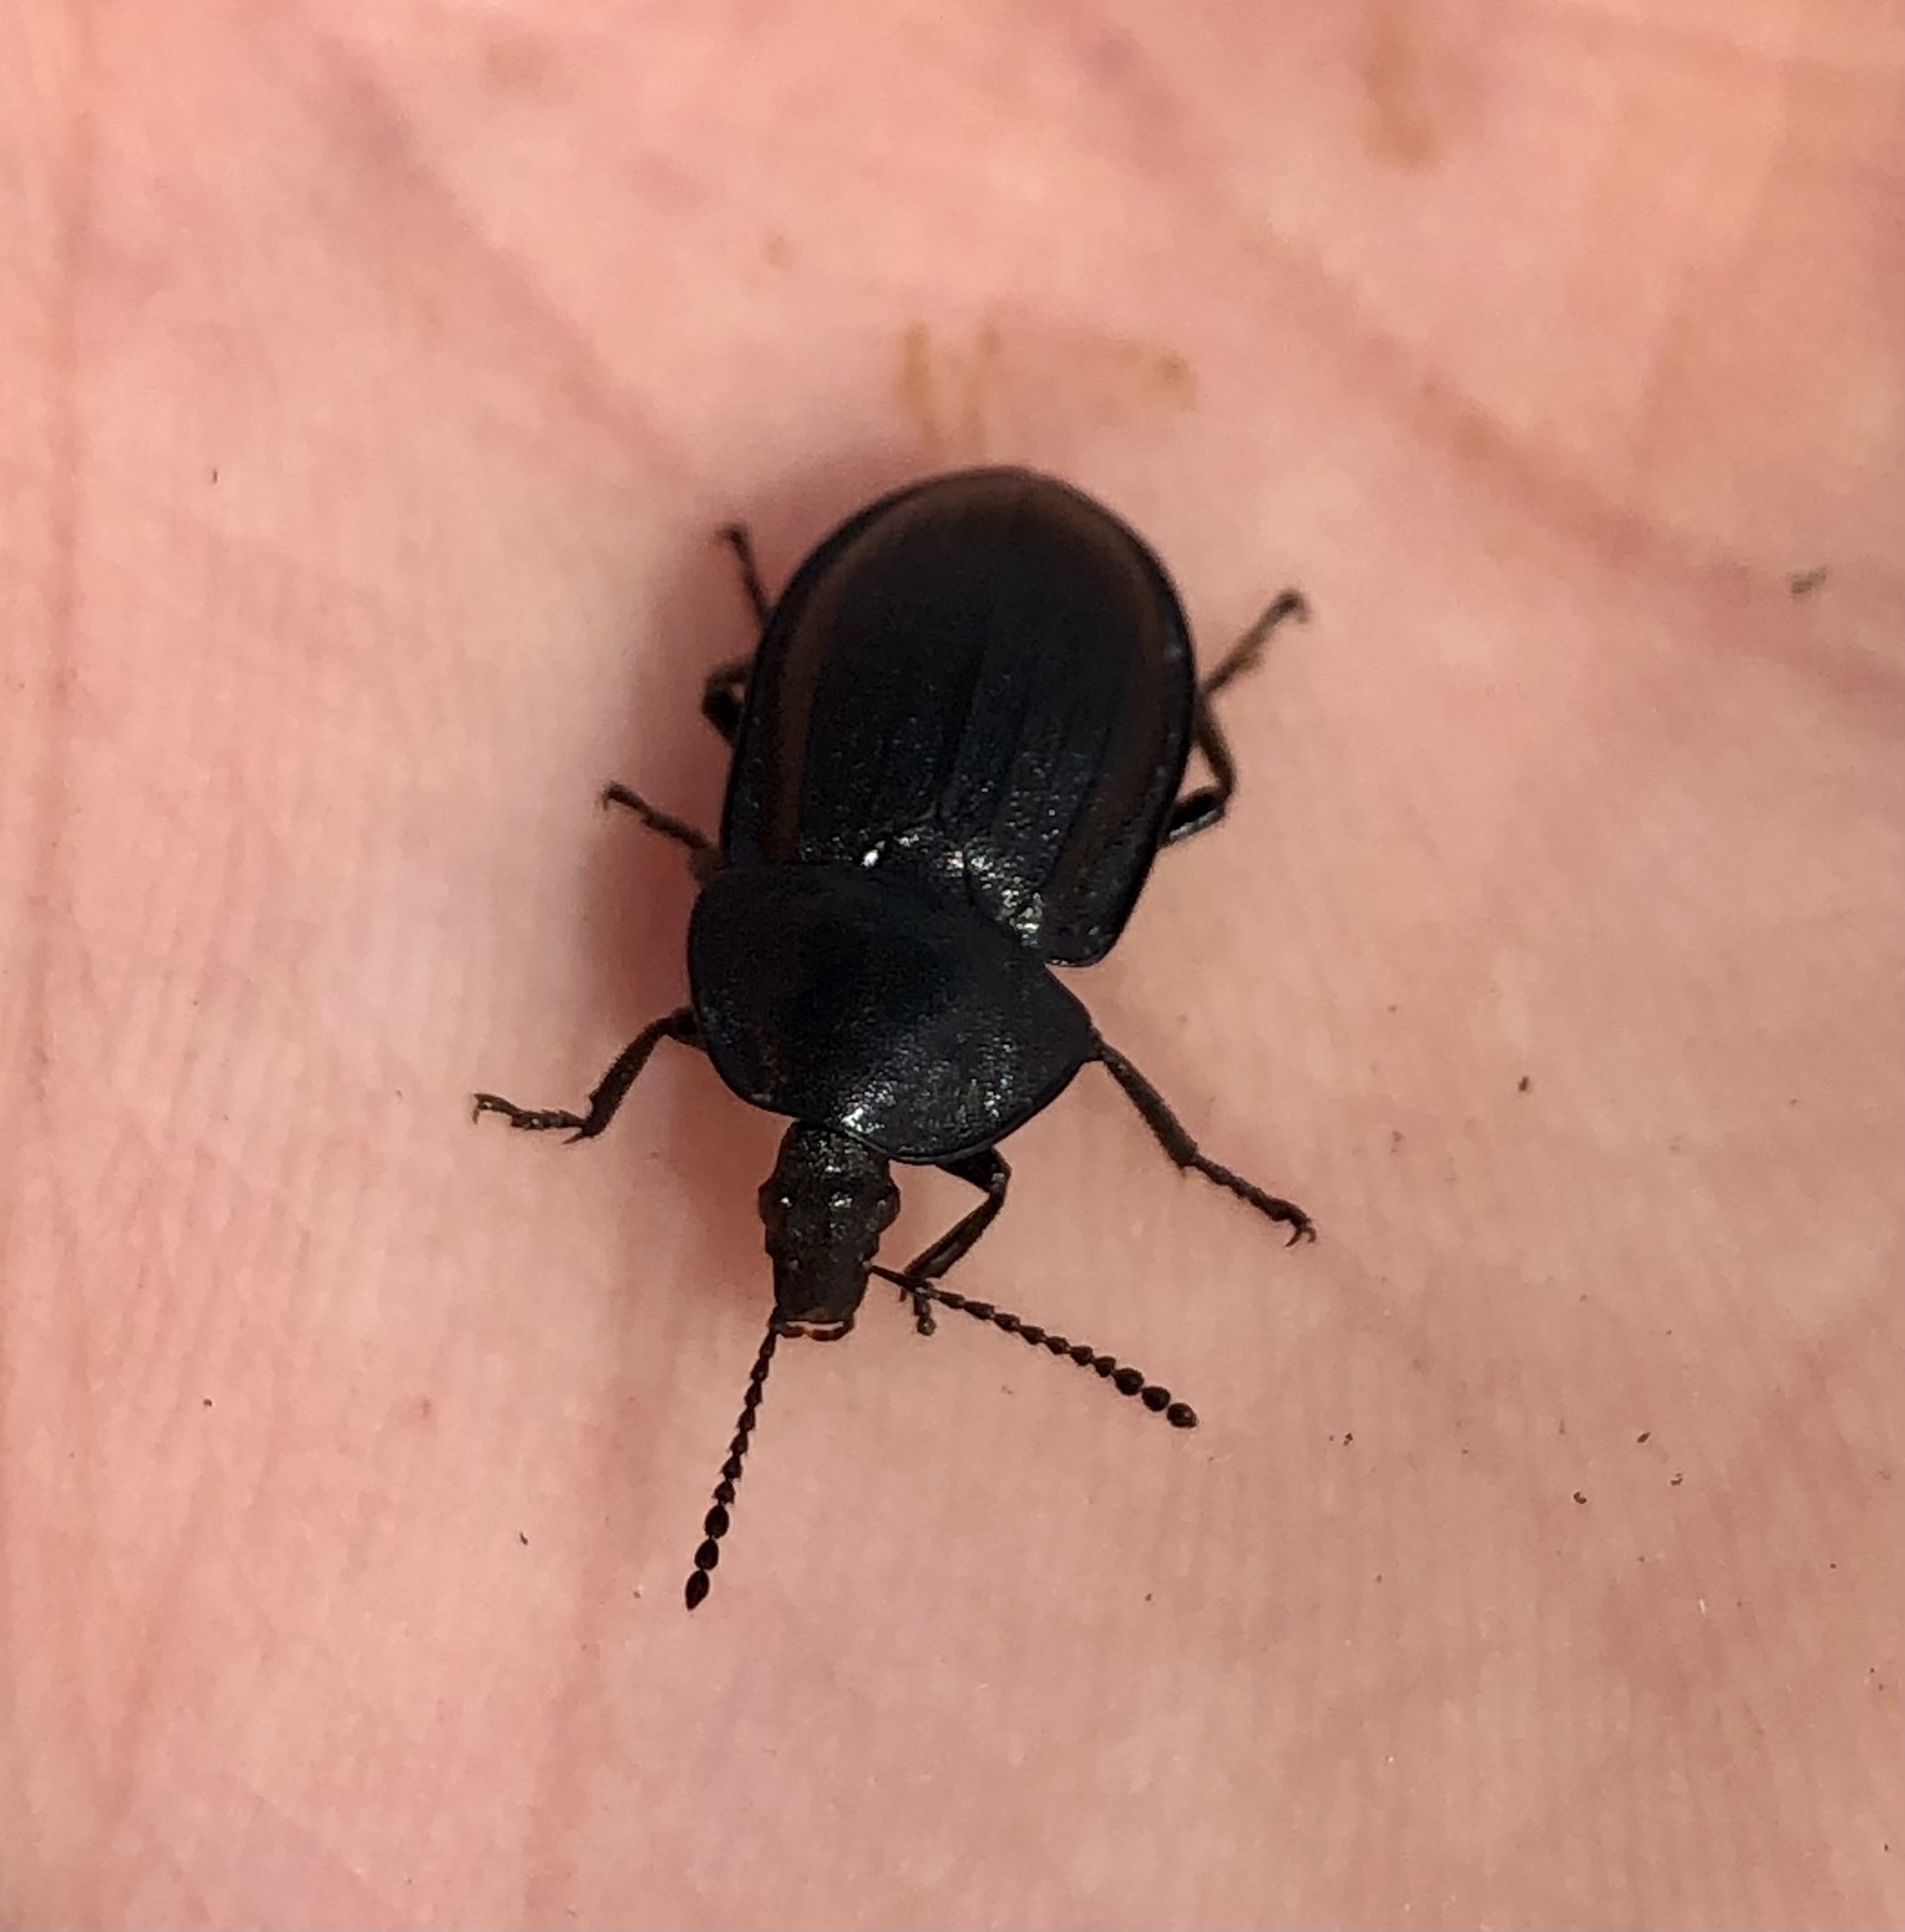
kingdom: Animalia
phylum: Arthropoda
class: Insecta
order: Coleoptera
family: Staphylinidae
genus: Silpha
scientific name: Silpha atrata
